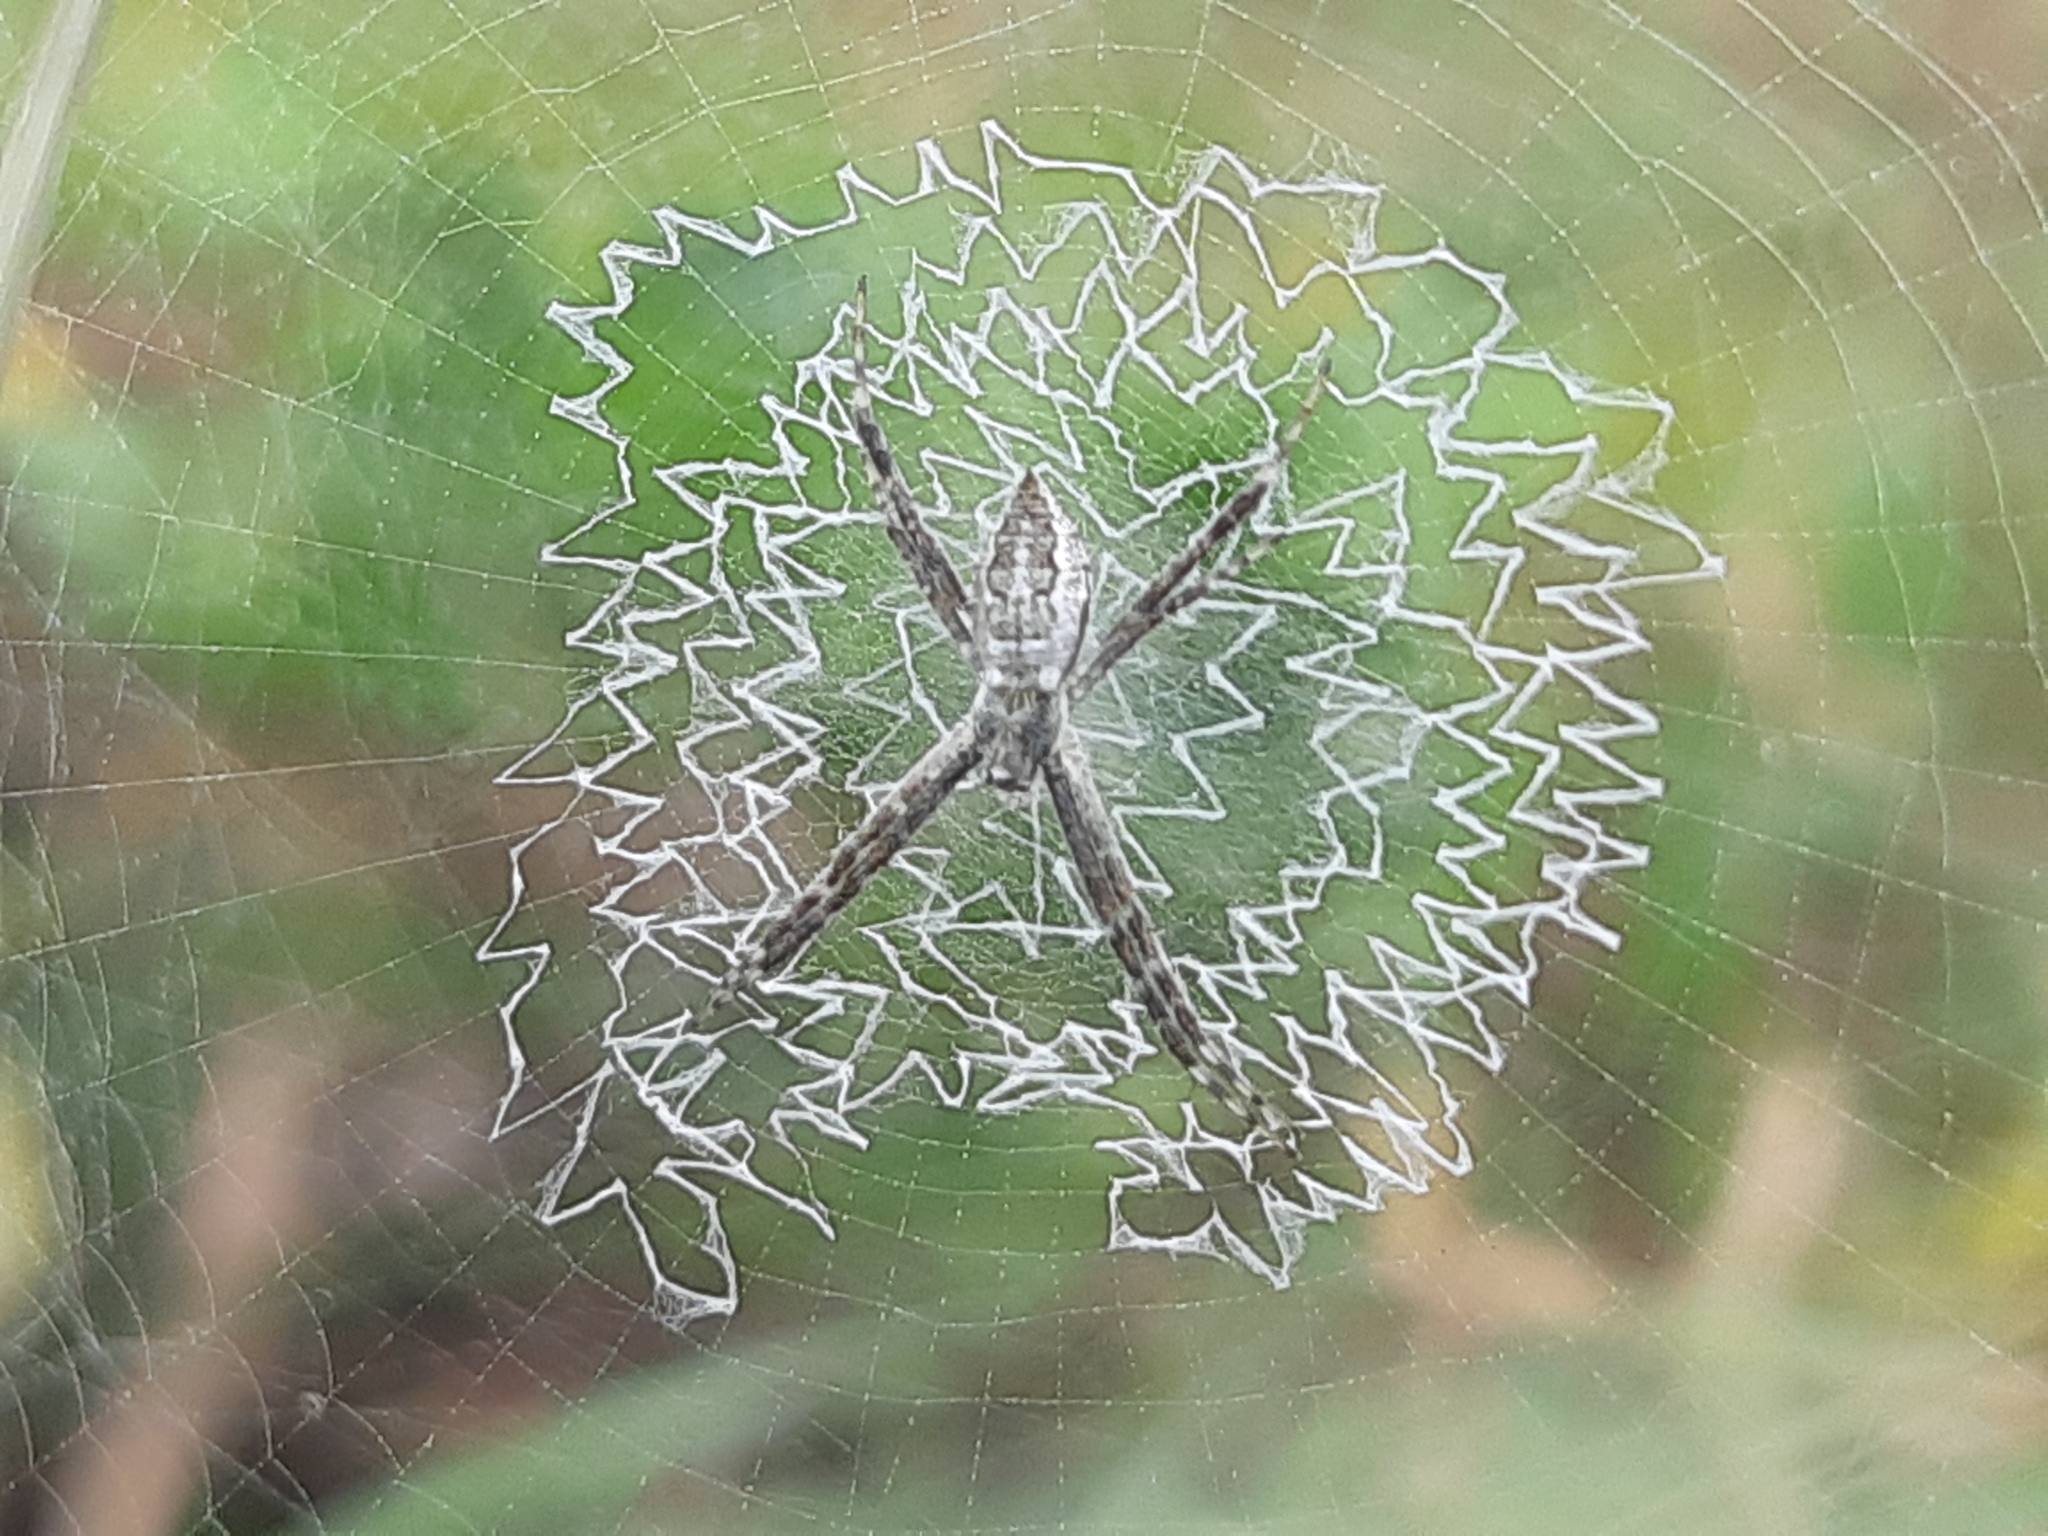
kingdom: Animalia
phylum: Arthropoda
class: Arachnida
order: Araneae
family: Araneidae
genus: Argiope
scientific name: Argiope argentata
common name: Orb weavers
